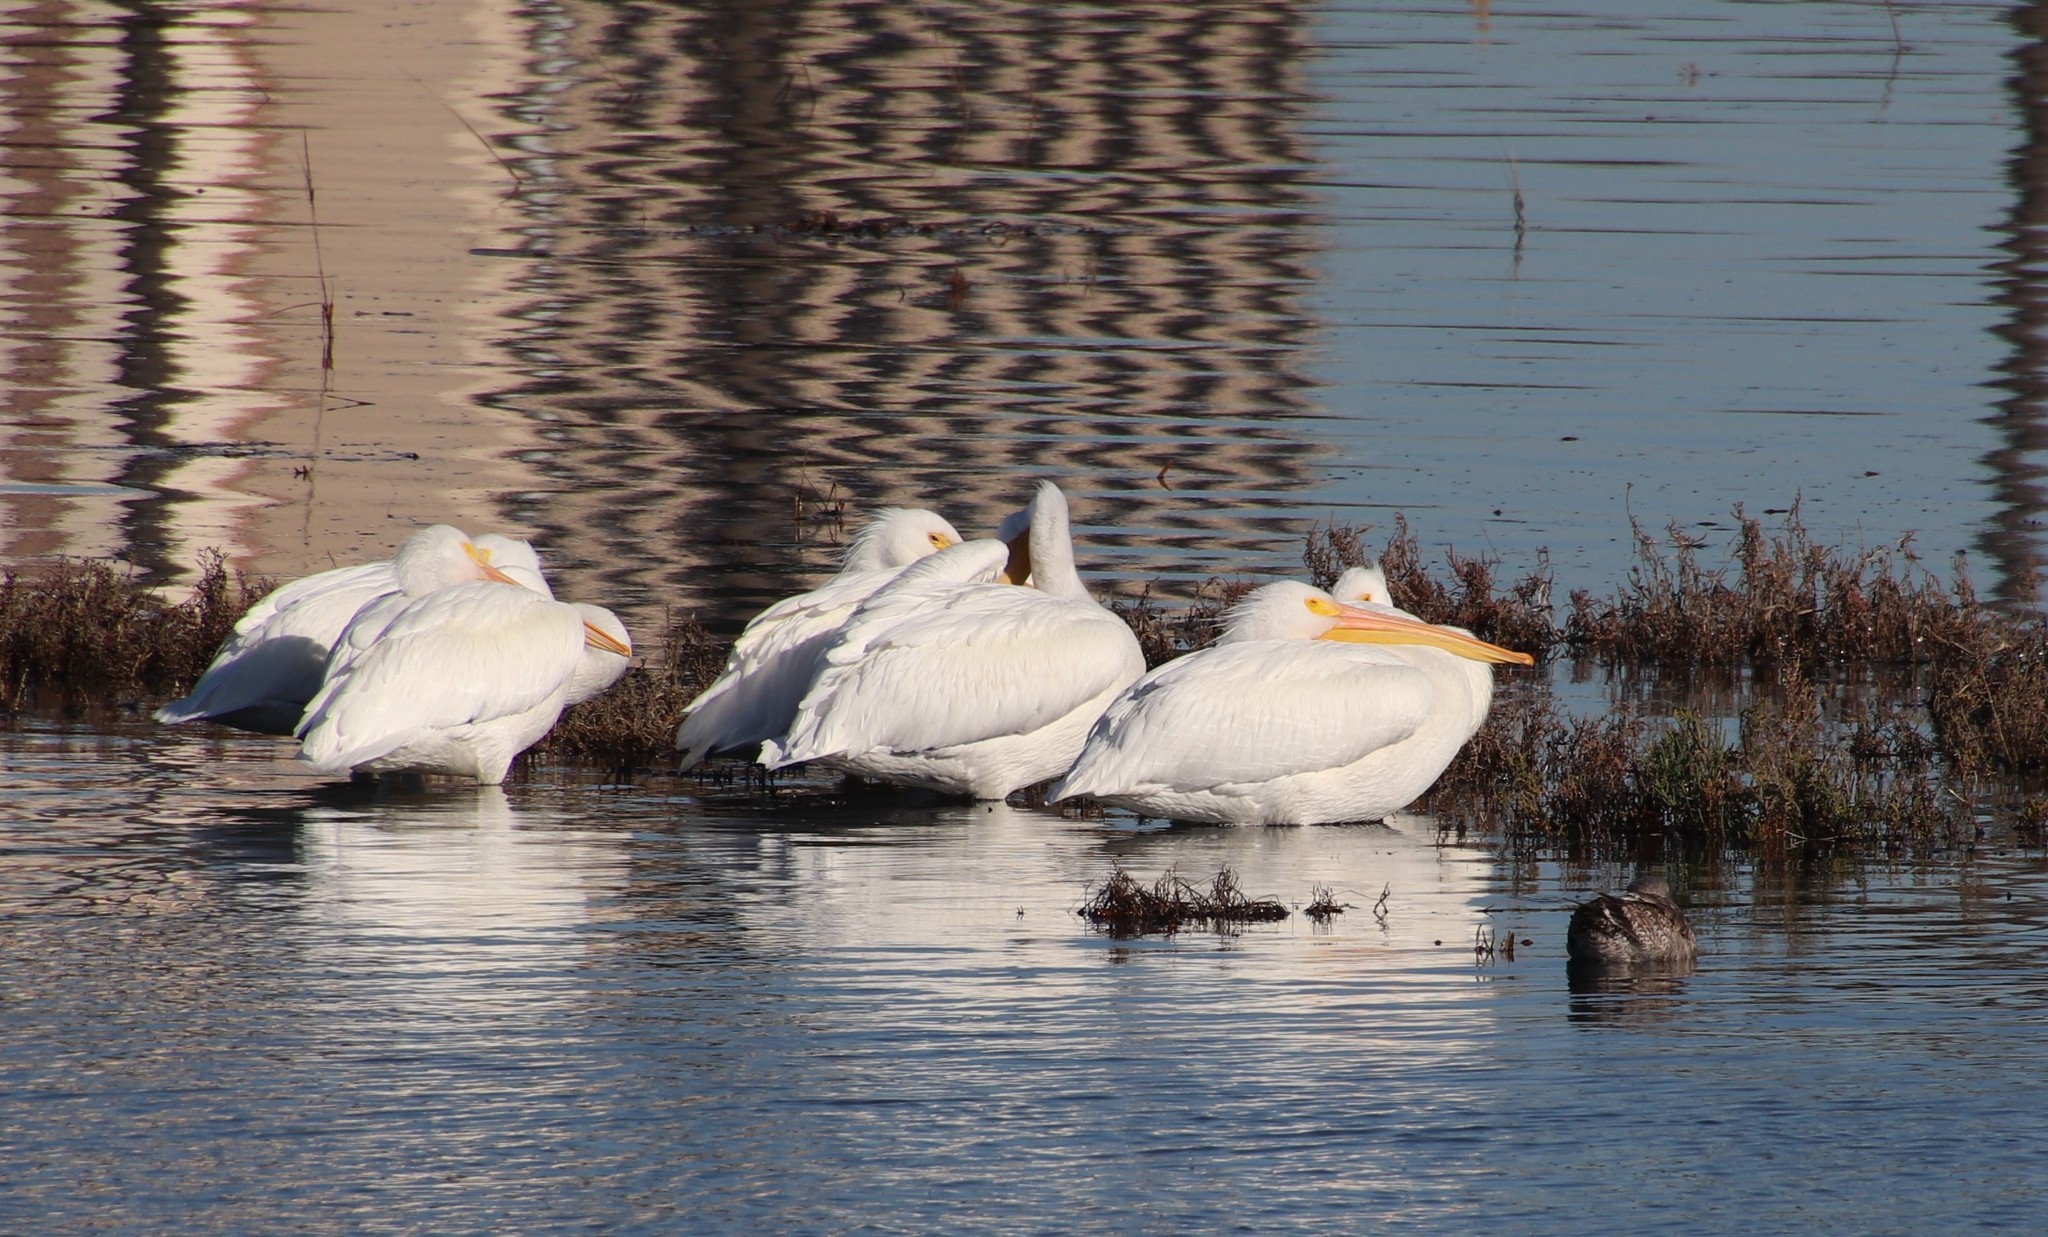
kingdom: Animalia
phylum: Chordata
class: Aves
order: Pelecaniformes
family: Pelecanidae
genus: Pelecanus
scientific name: Pelecanus erythrorhynchos
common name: American white pelican
